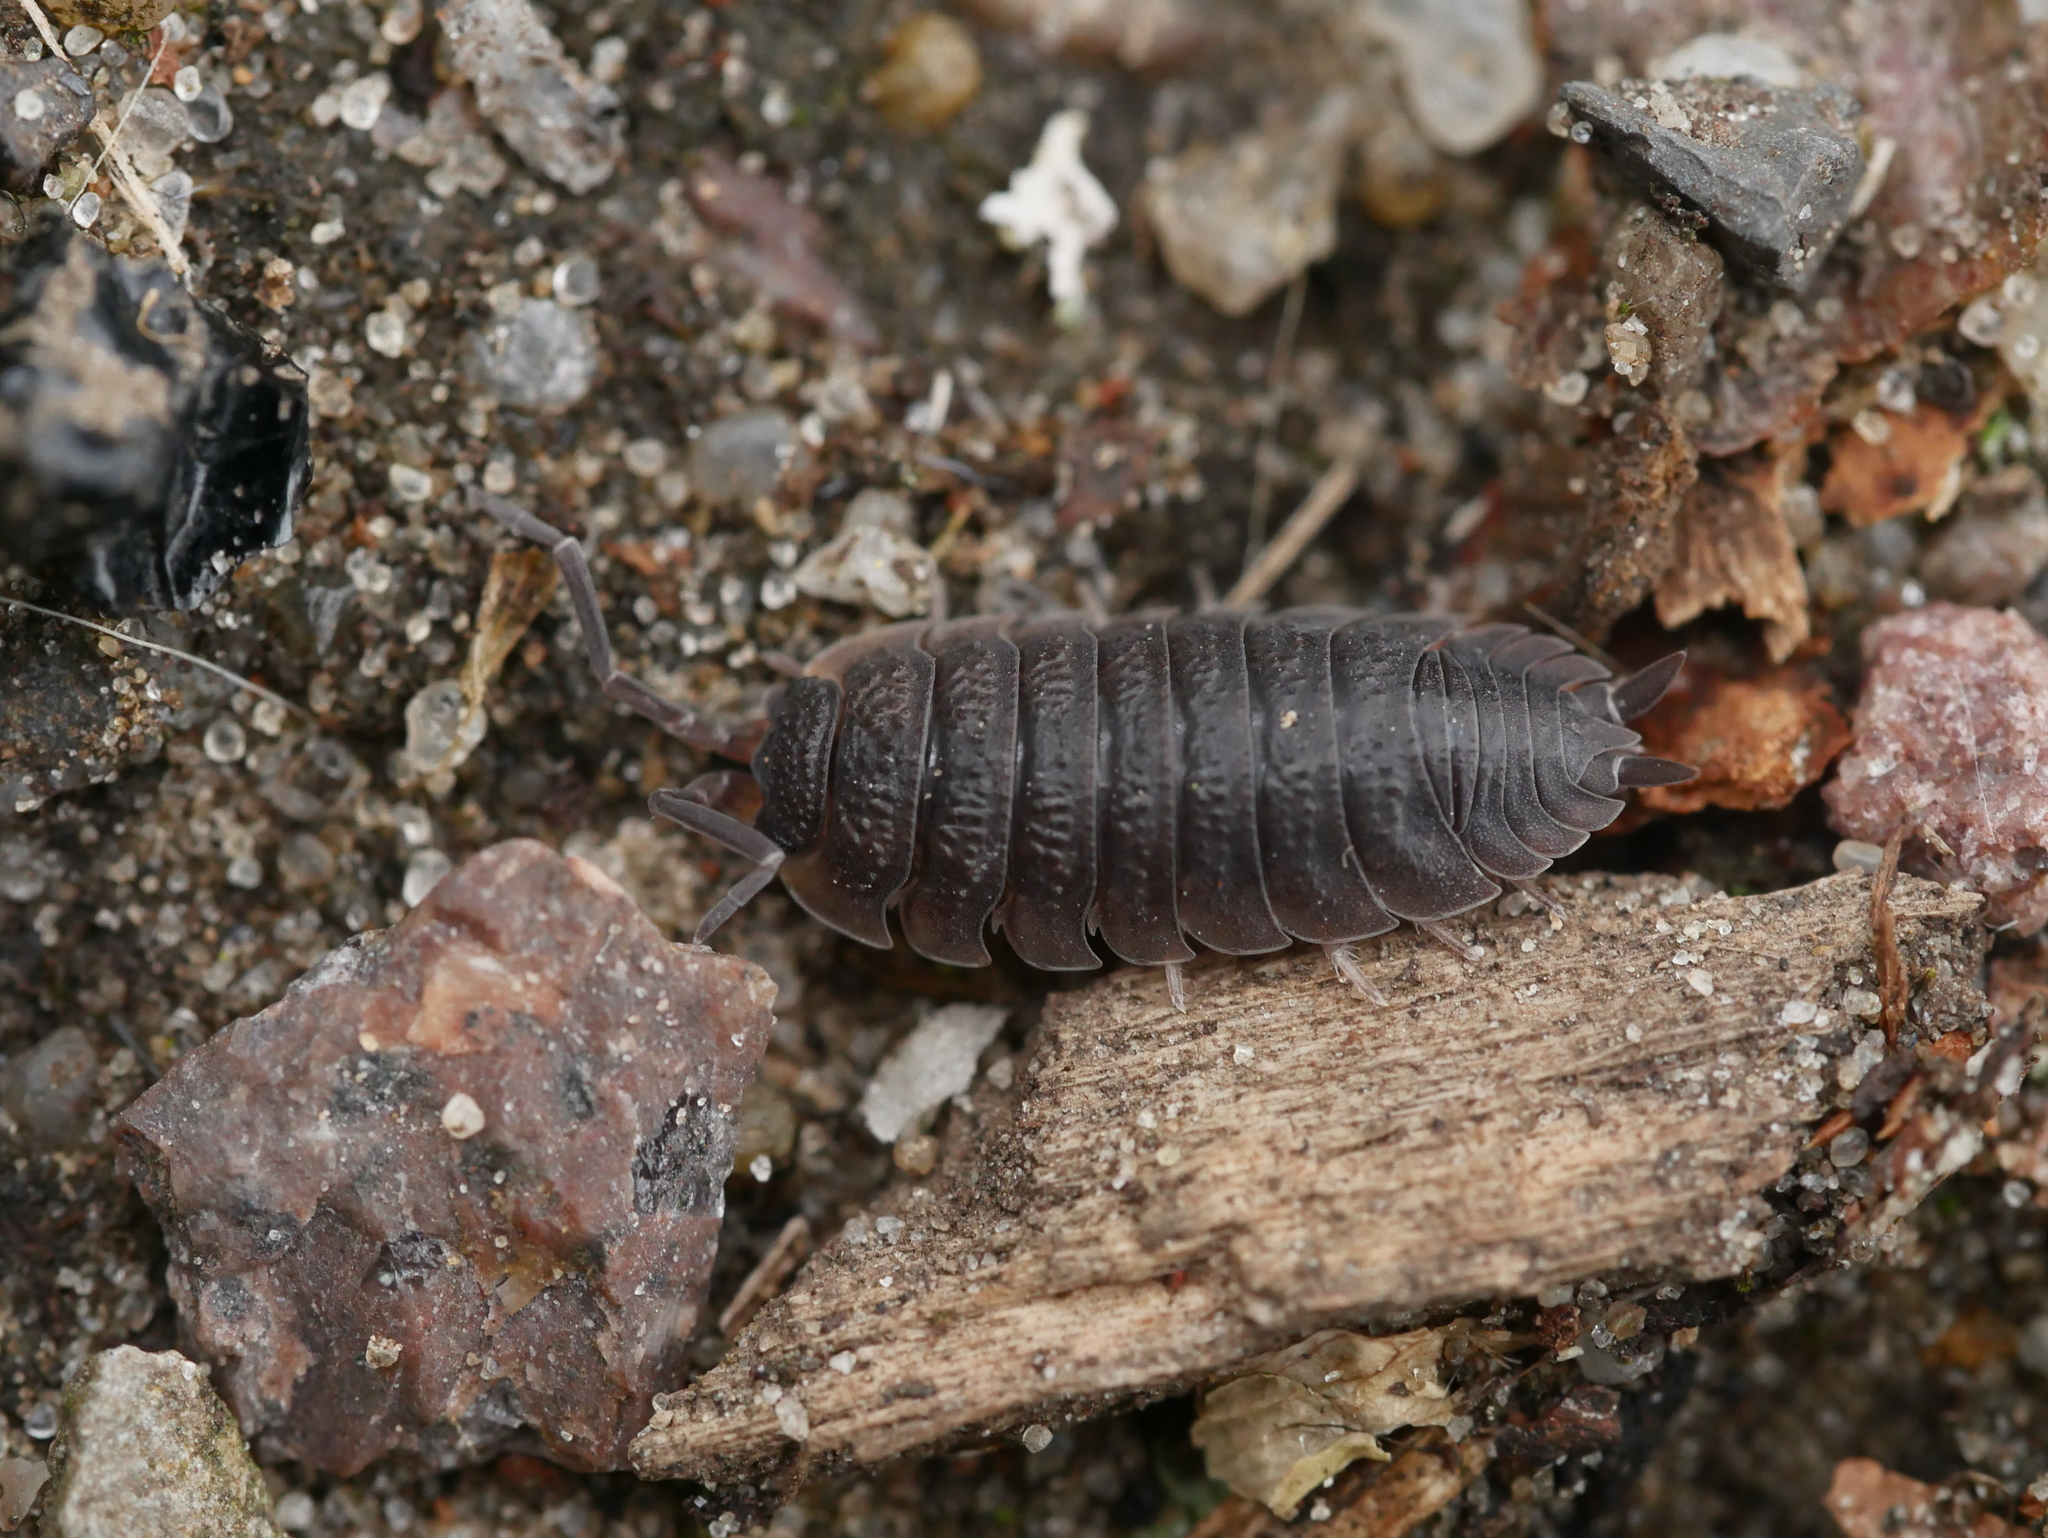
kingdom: Animalia
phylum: Arthropoda
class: Malacostraca
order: Isopoda
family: Porcellionidae
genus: Porcellio
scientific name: Porcellio scaber
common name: Common rough woodlouse
